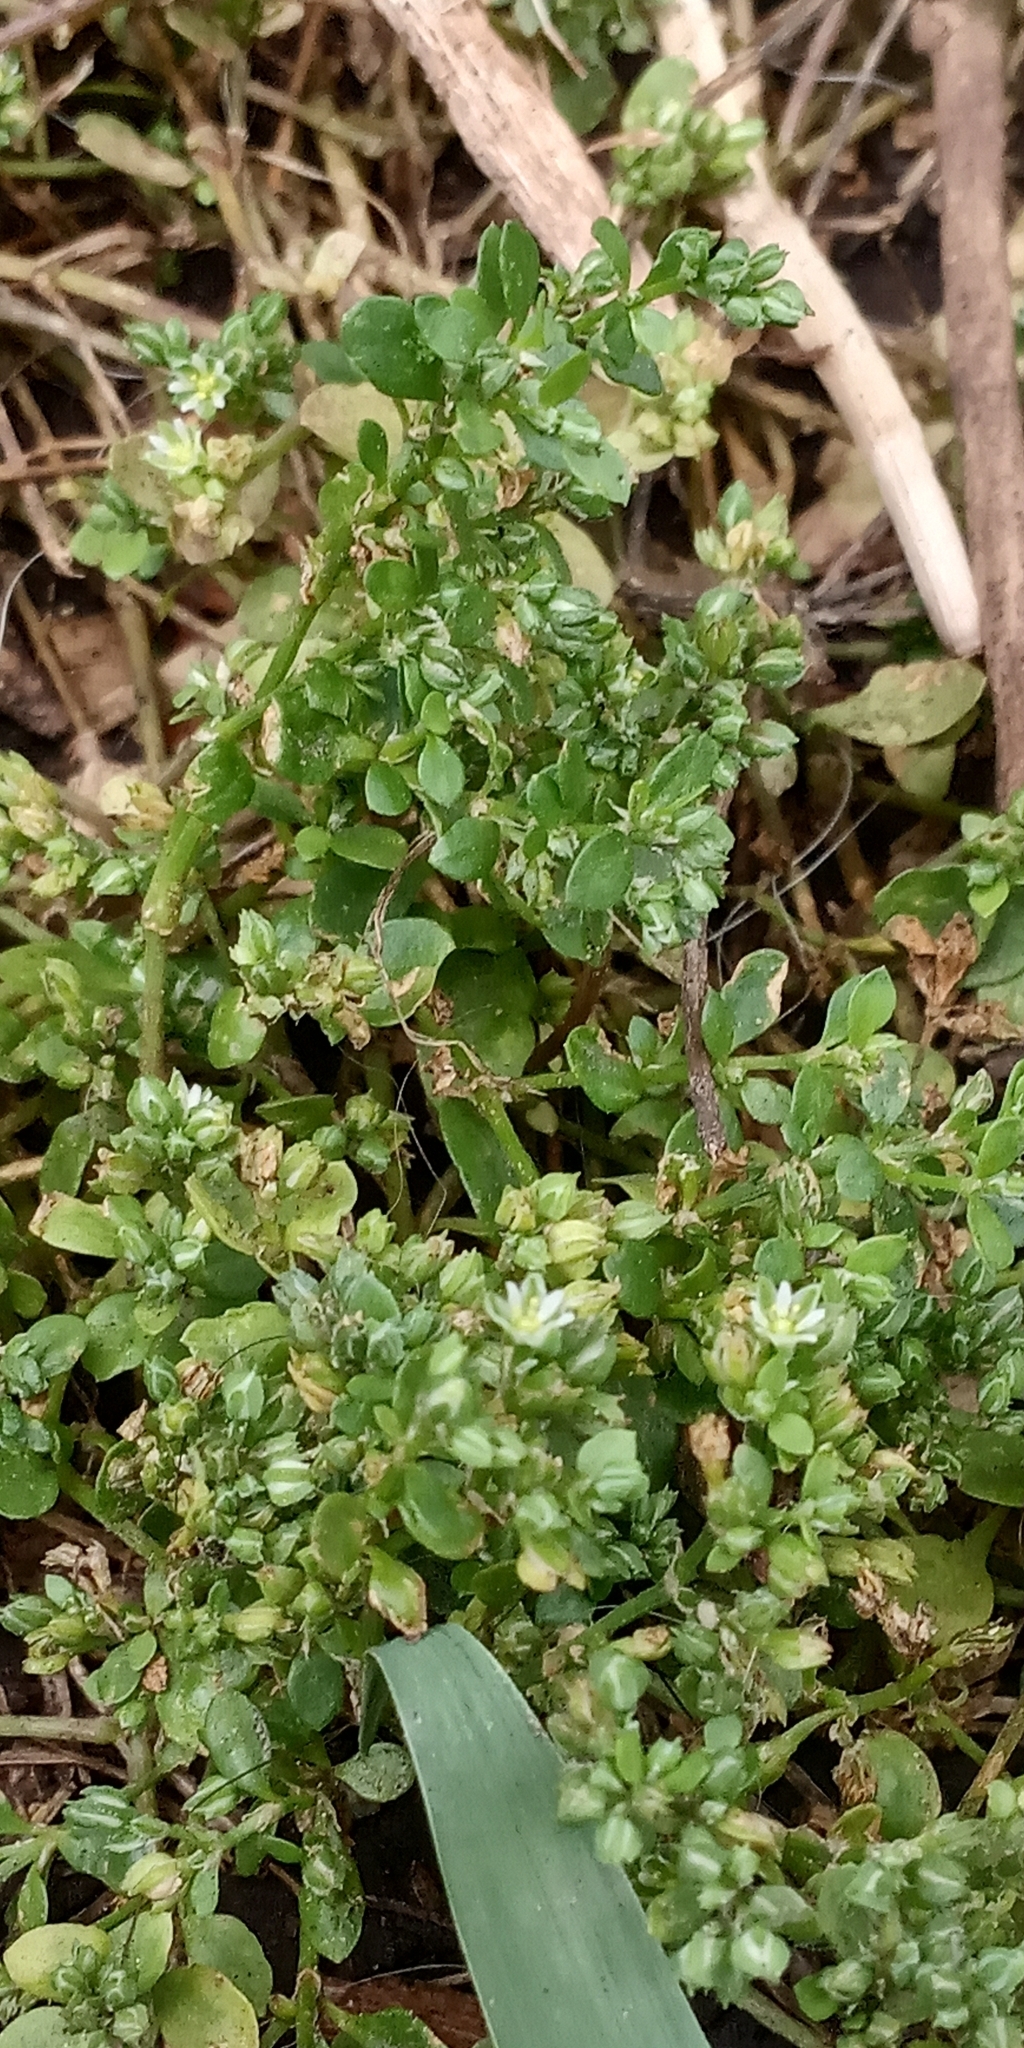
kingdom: Plantae
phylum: Tracheophyta
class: Magnoliopsida
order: Caryophyllales
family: Caryophyllaceae
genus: Polycarpon
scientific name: Polycarpon tetraphyllum
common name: Four-leaved all-seed
